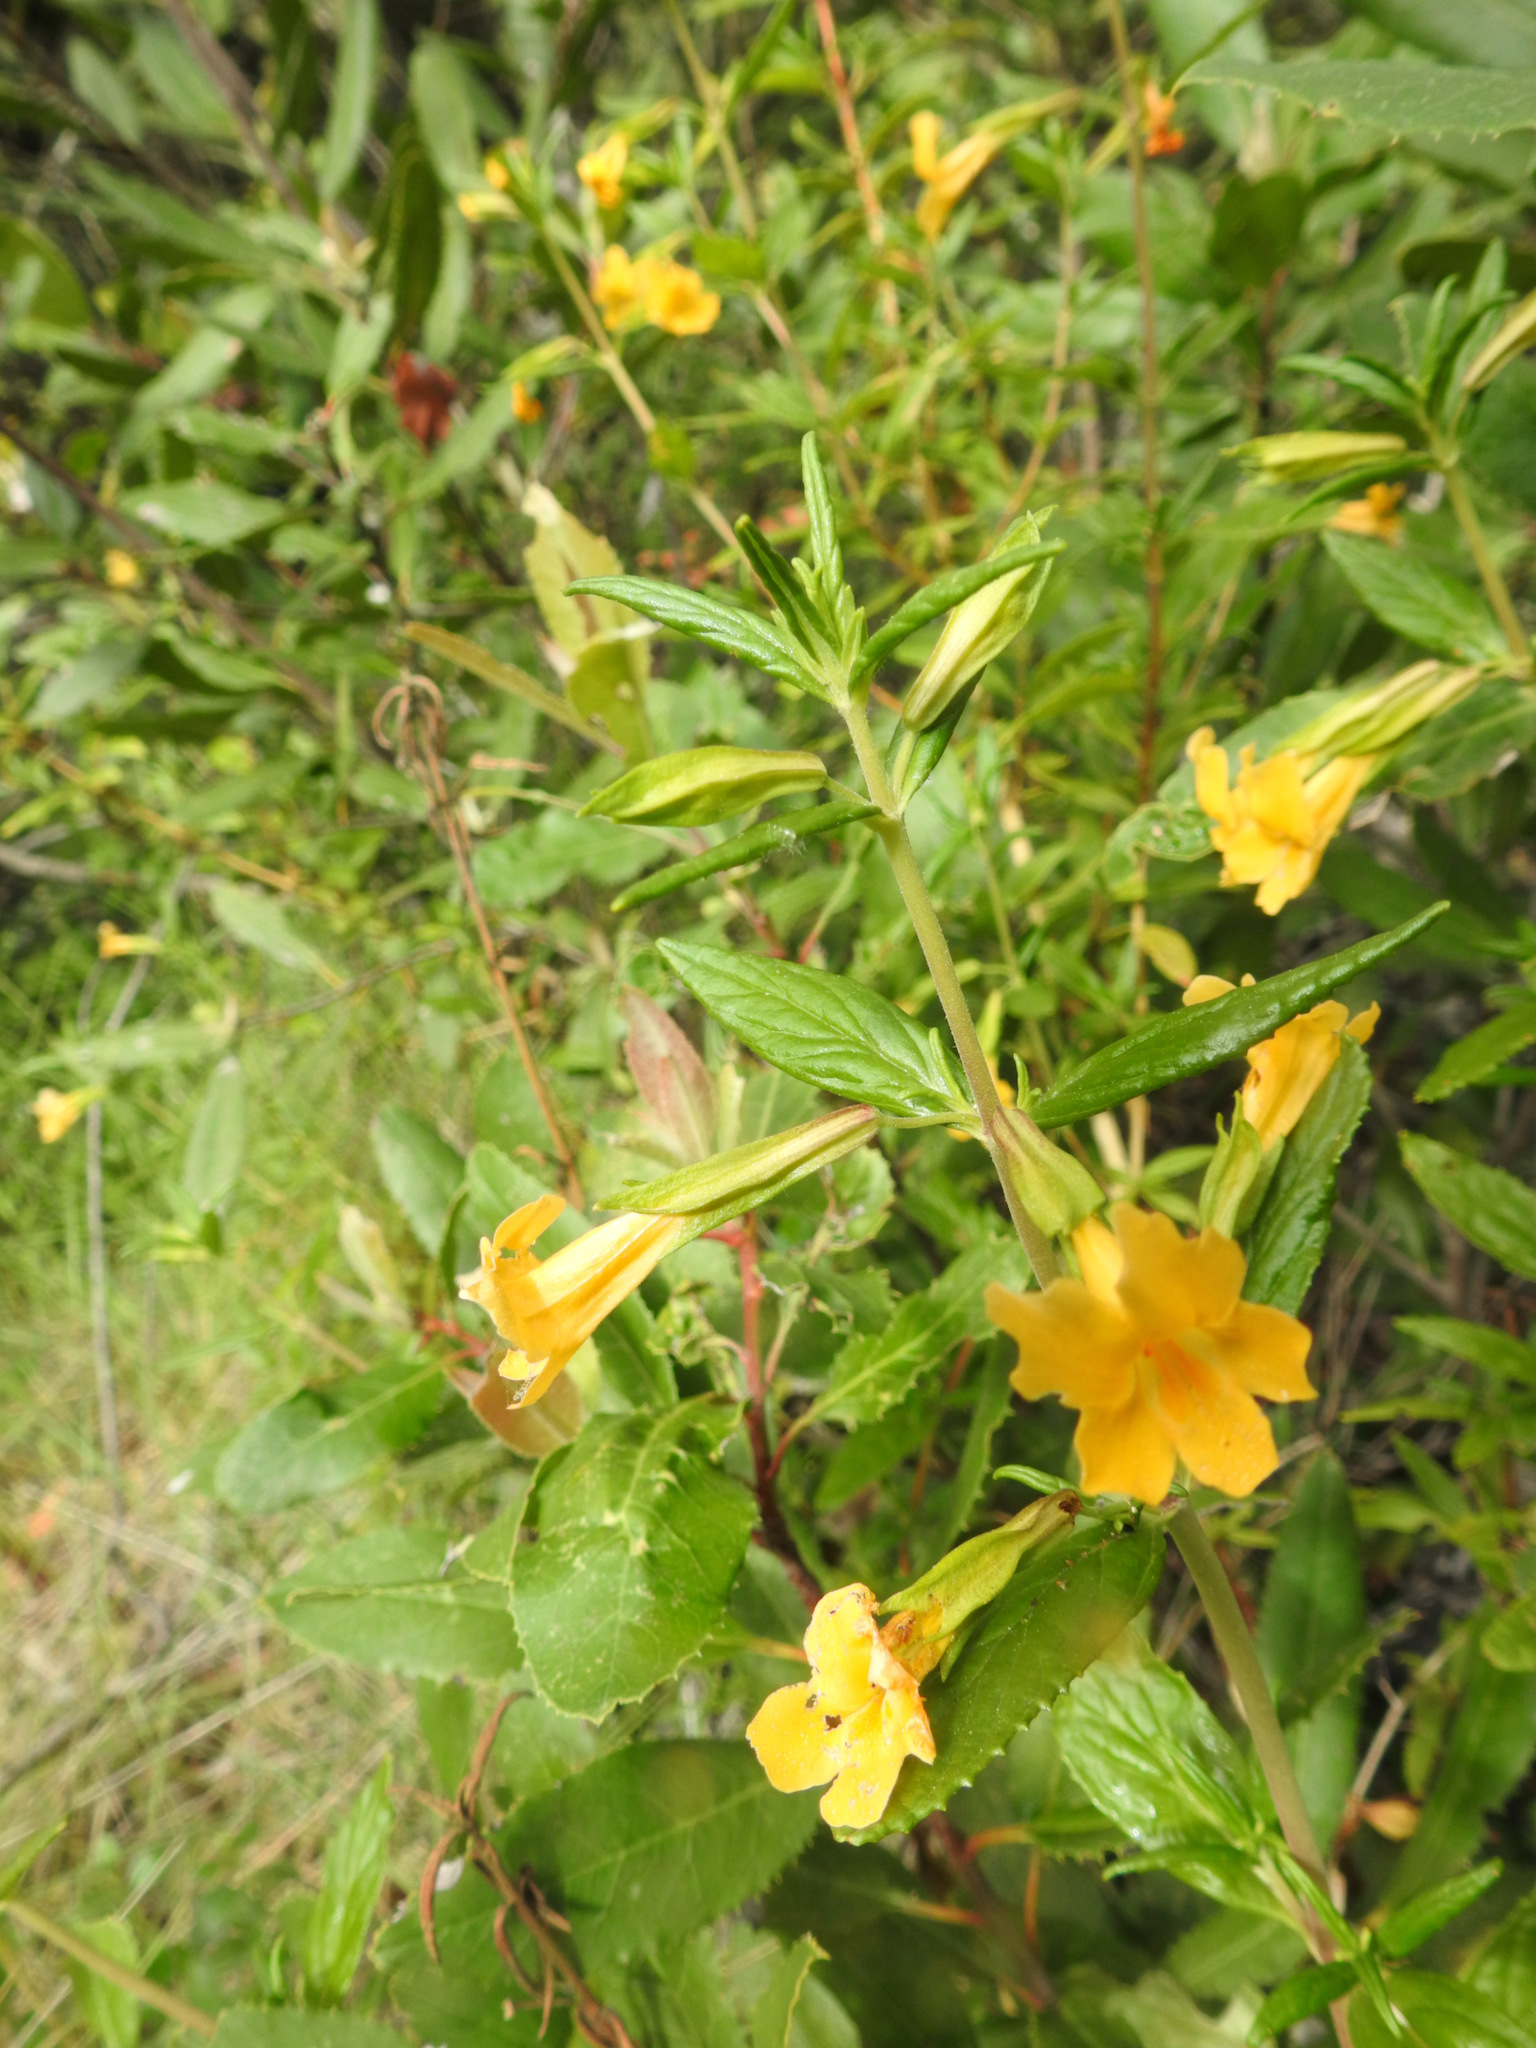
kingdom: Plantae
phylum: Tracheophyta
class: Magnoliopsida
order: Lamiales
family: Phrymaceae
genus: Diplacus
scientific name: Diplacus aurantiacus
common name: Bush monkey-flower
